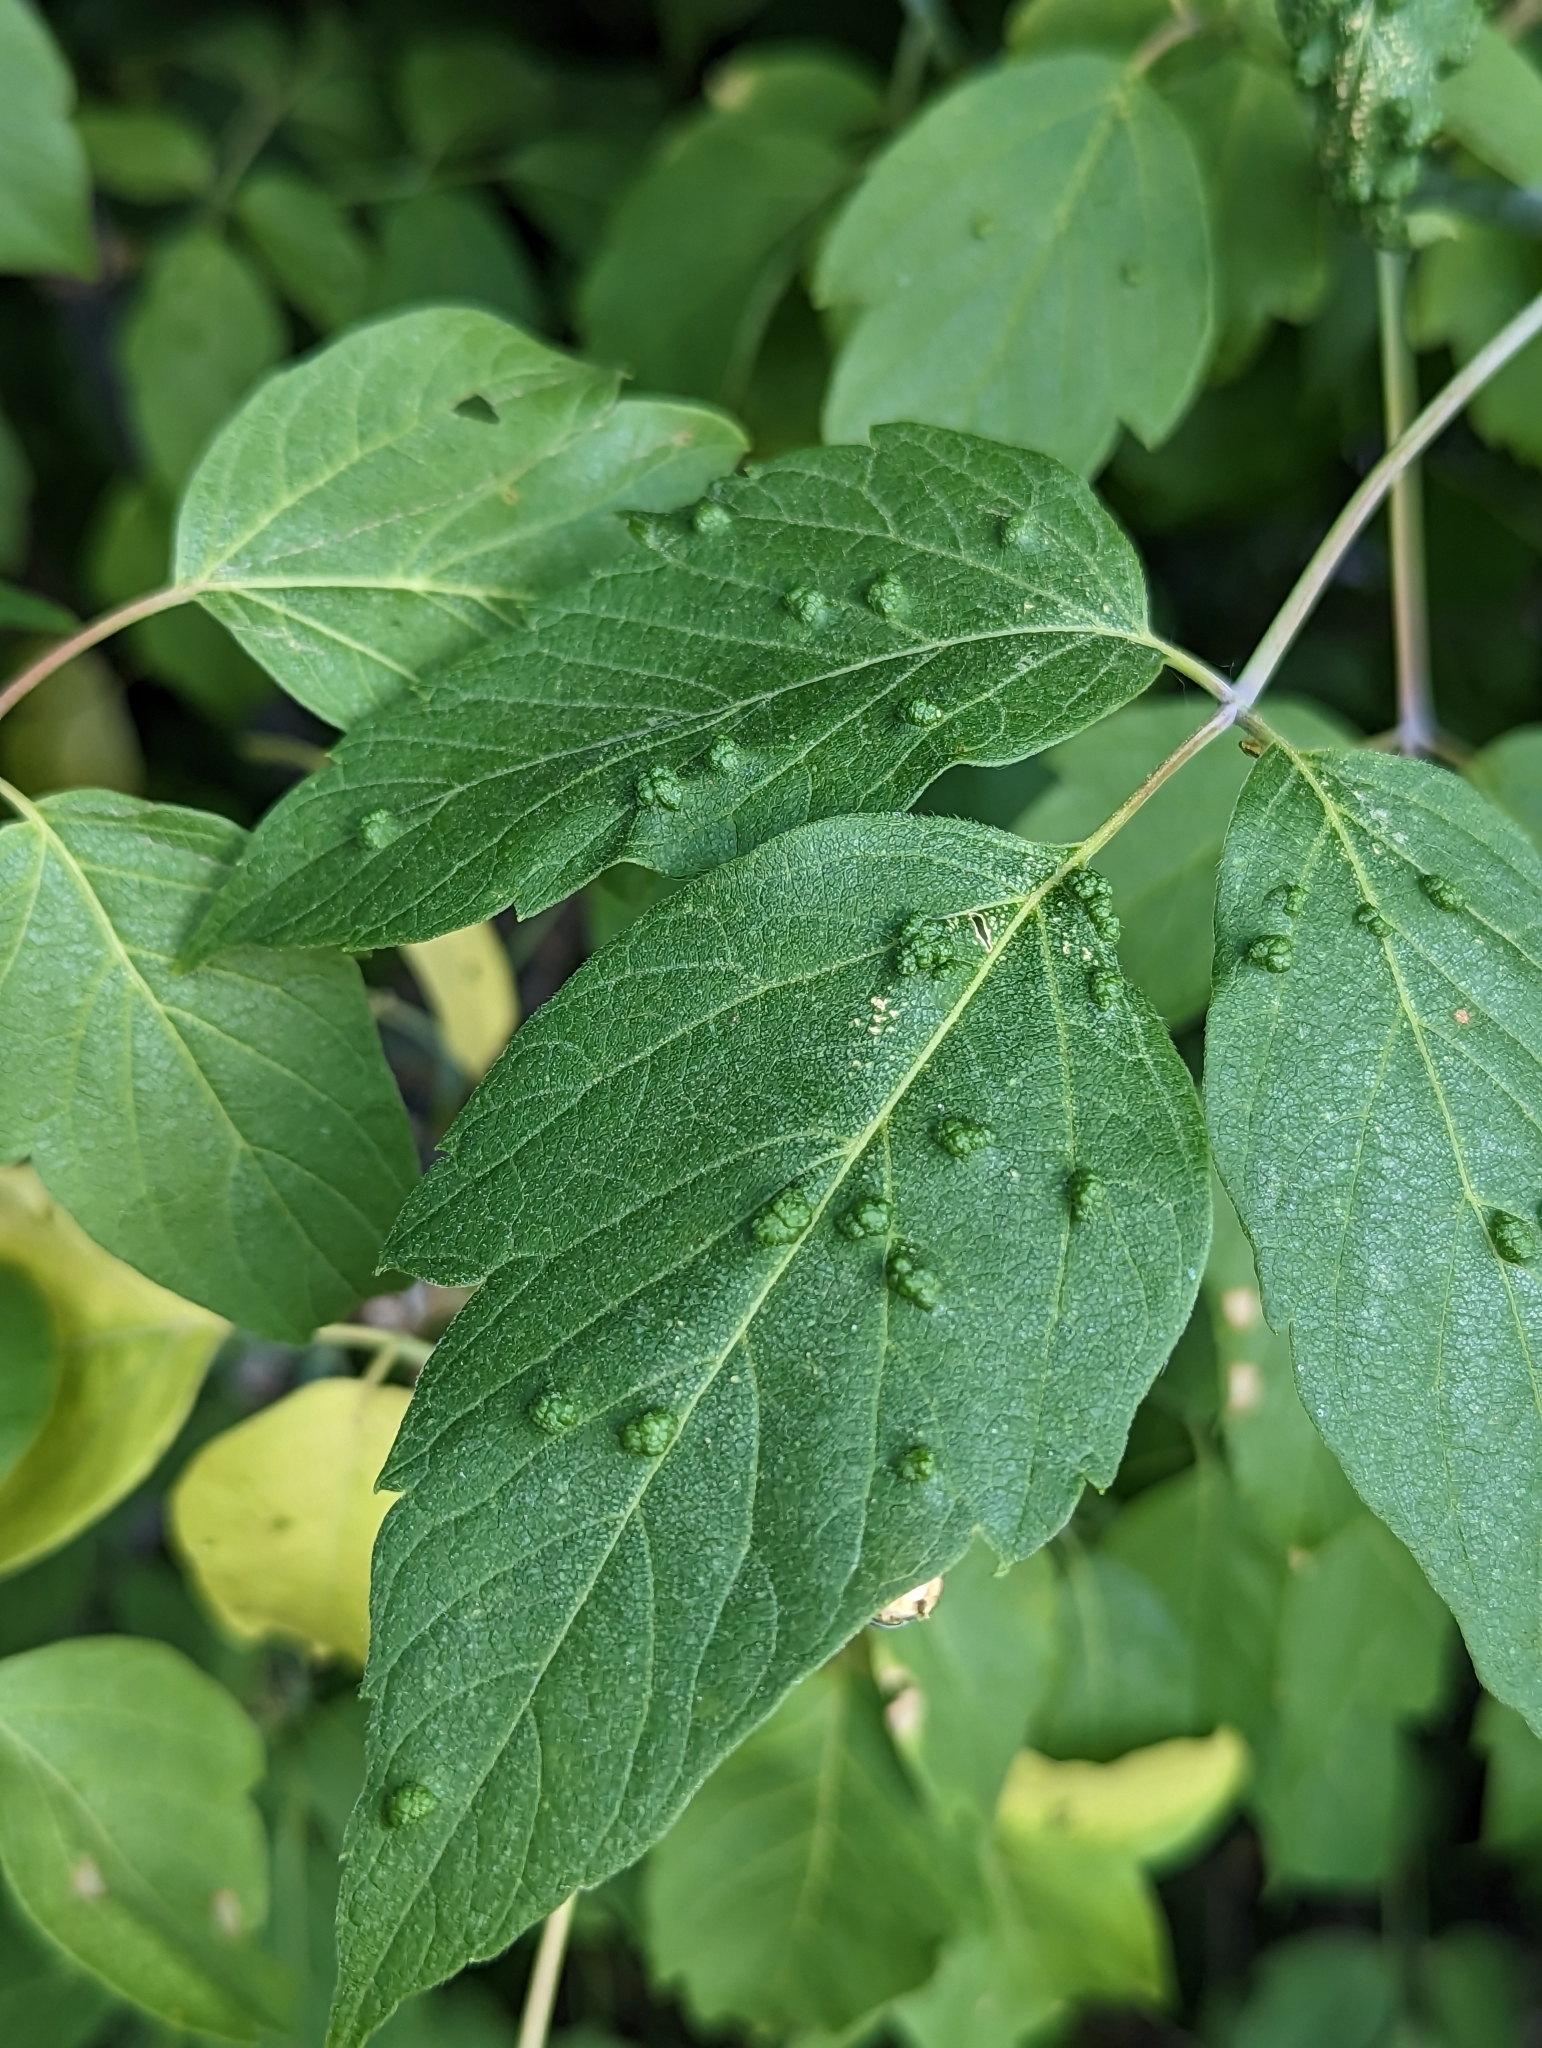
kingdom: Animalia
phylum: Arthropoda
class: Arachnida
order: Trombidiformes
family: Eriophyidae
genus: Aceria
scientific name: Aceria
